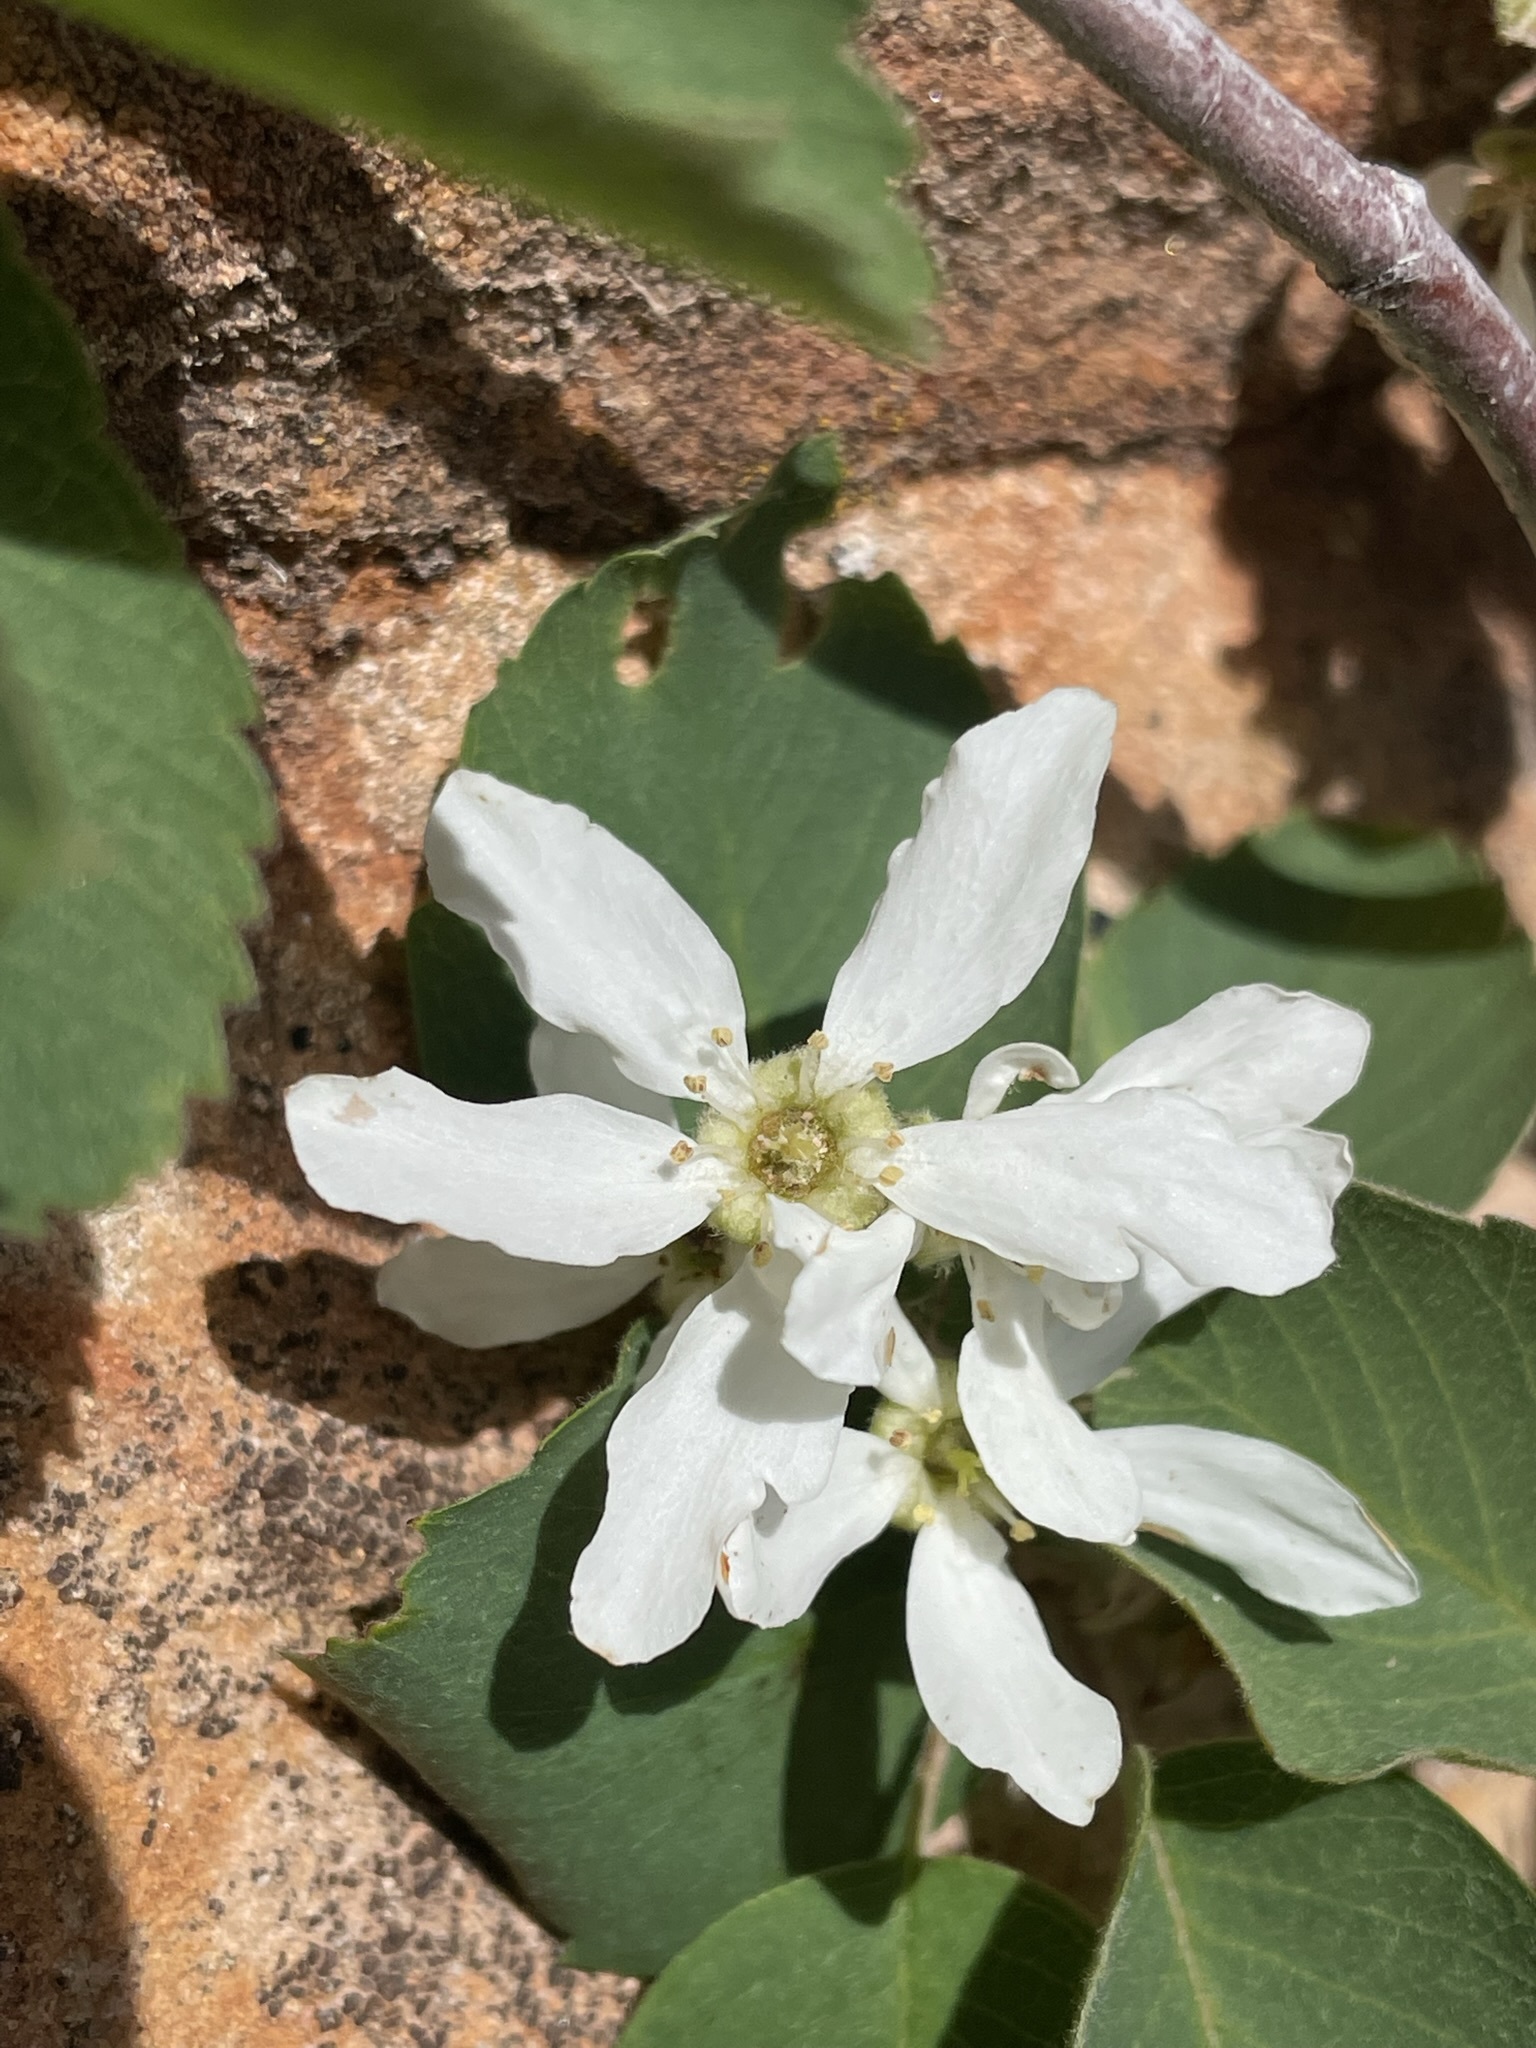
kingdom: Plantae
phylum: Tracheophyta
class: Magnoliopsida
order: Rosales
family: Rosaceae
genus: Amelanchier
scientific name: Amelanchier utahensis
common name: Utah serviceberry
